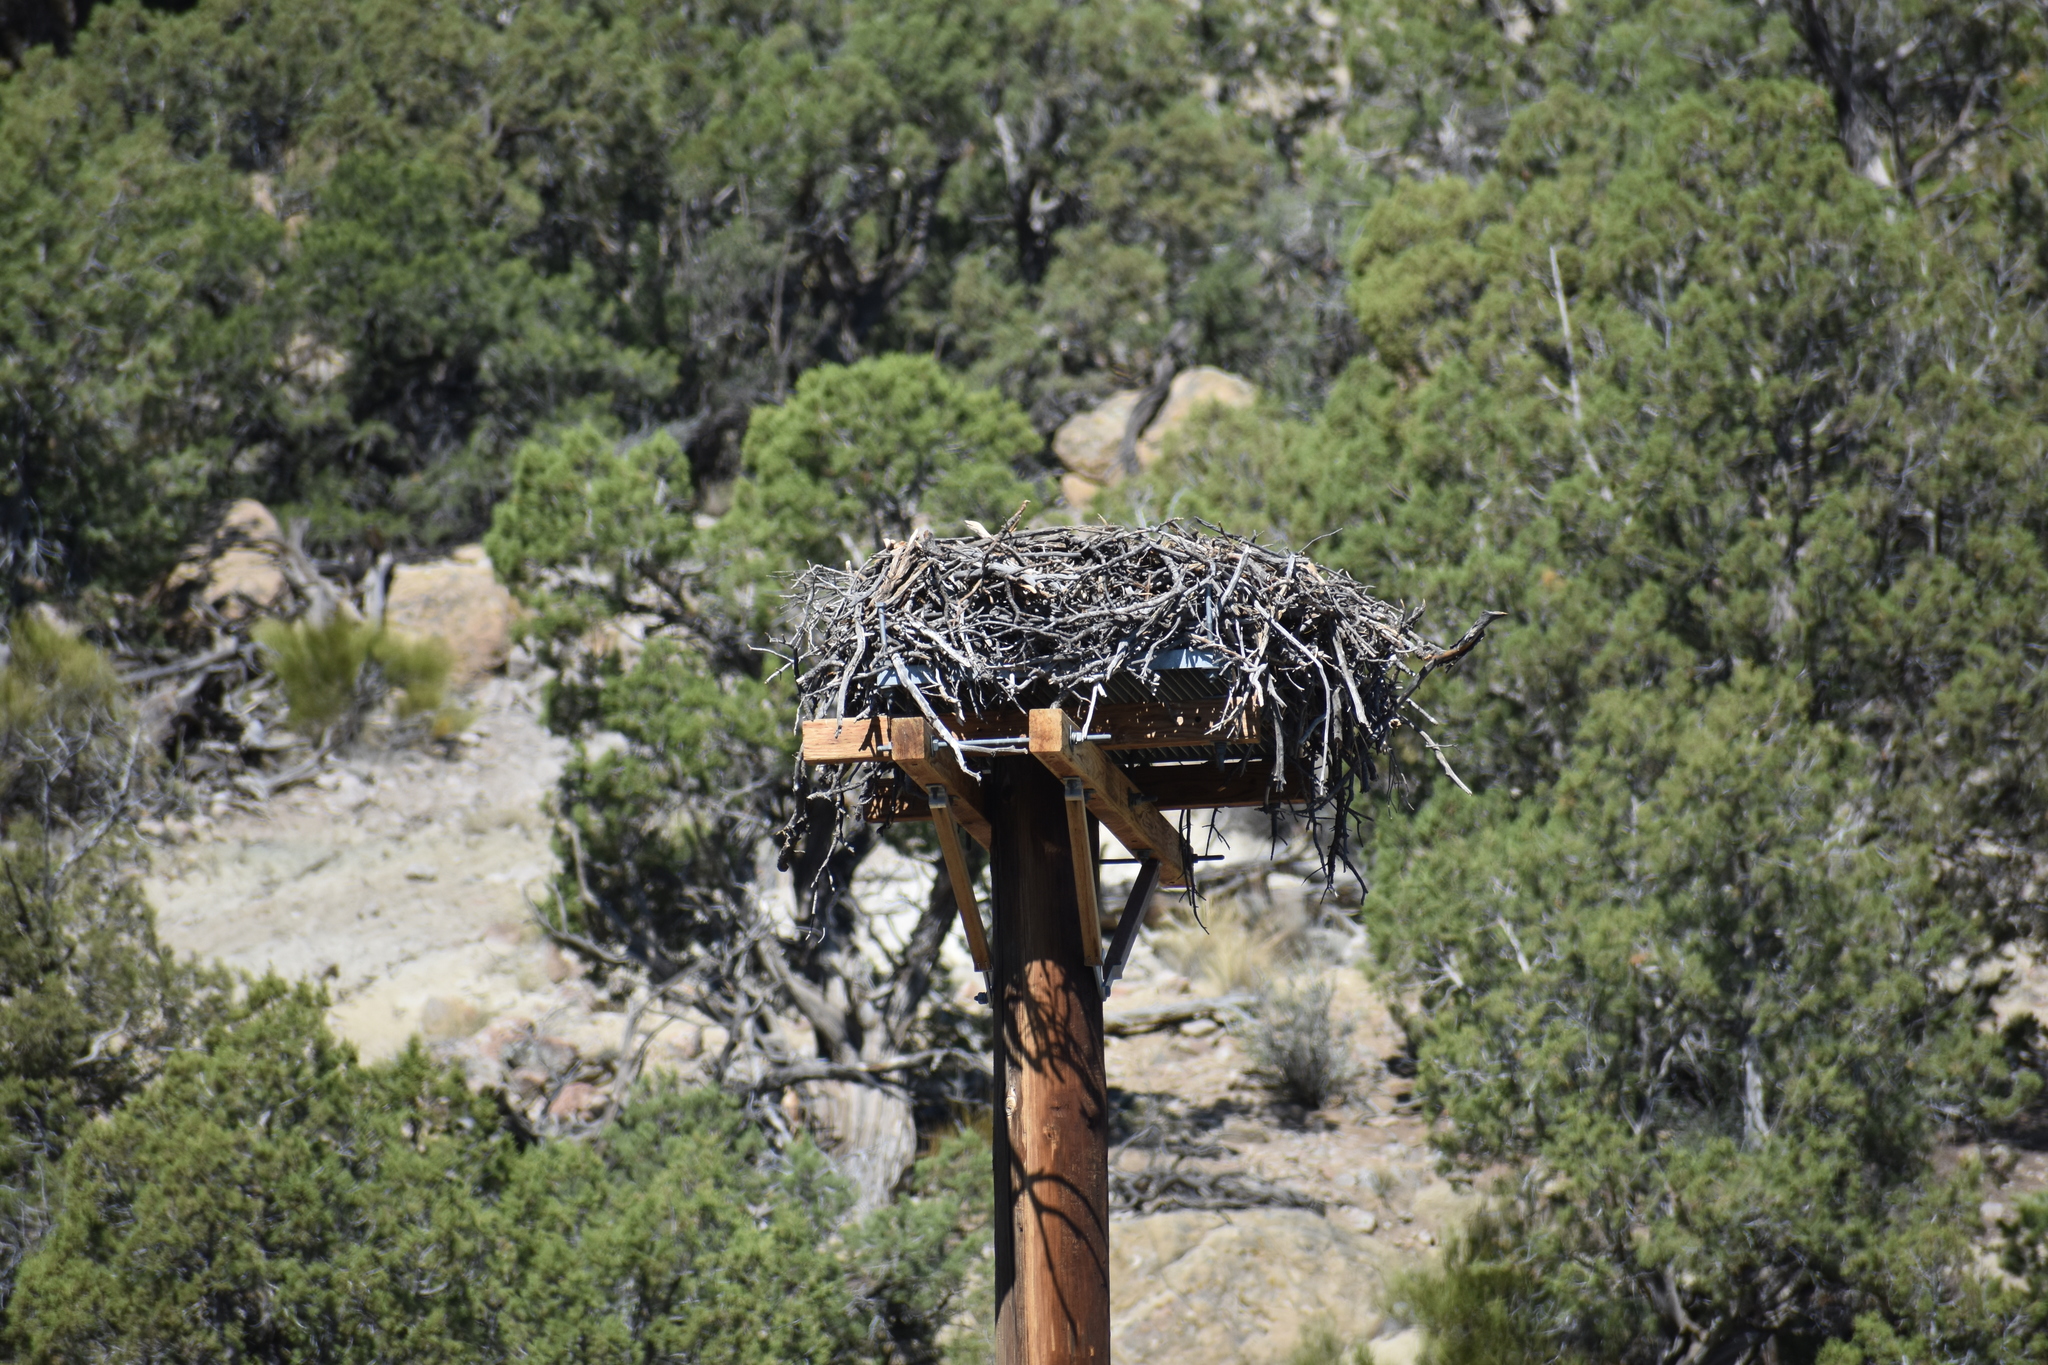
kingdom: Animalia
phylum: Chordata
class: Aves
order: Accipitriformes
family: Pandionidae
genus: Pandion
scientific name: Pandion haliaetus
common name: Osprey
